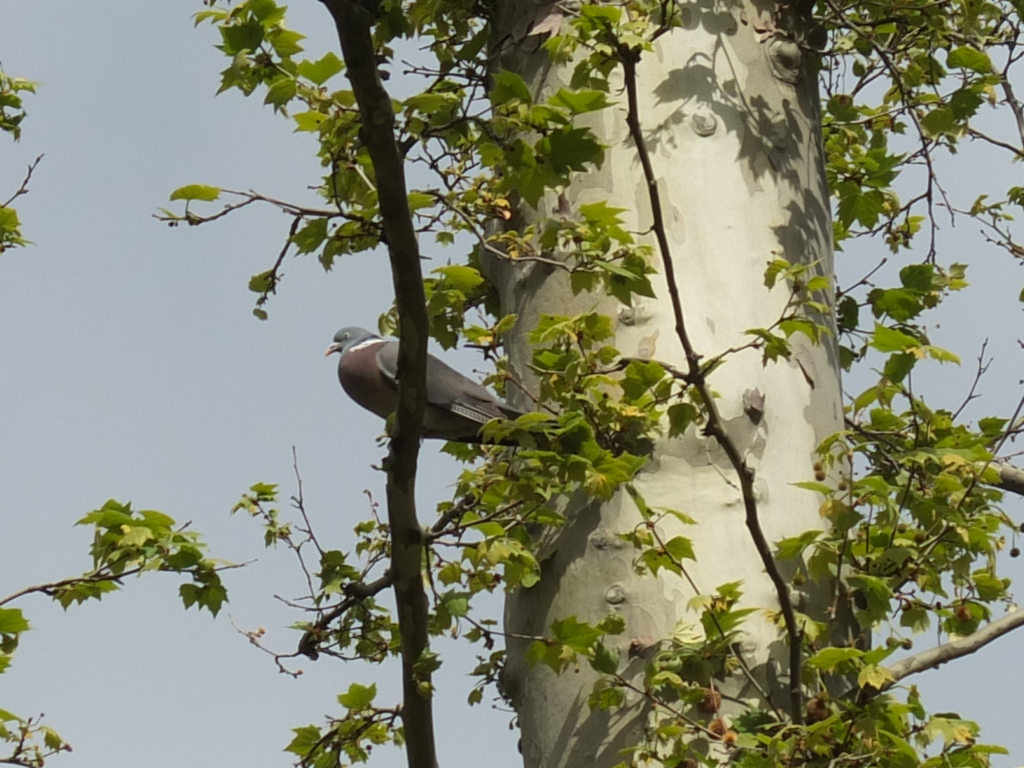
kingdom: Animalia
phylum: Chordata
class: Aves
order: Columbiformes
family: Columbidae
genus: Columba
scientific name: Columba palumbus
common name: Common wood pigeon
